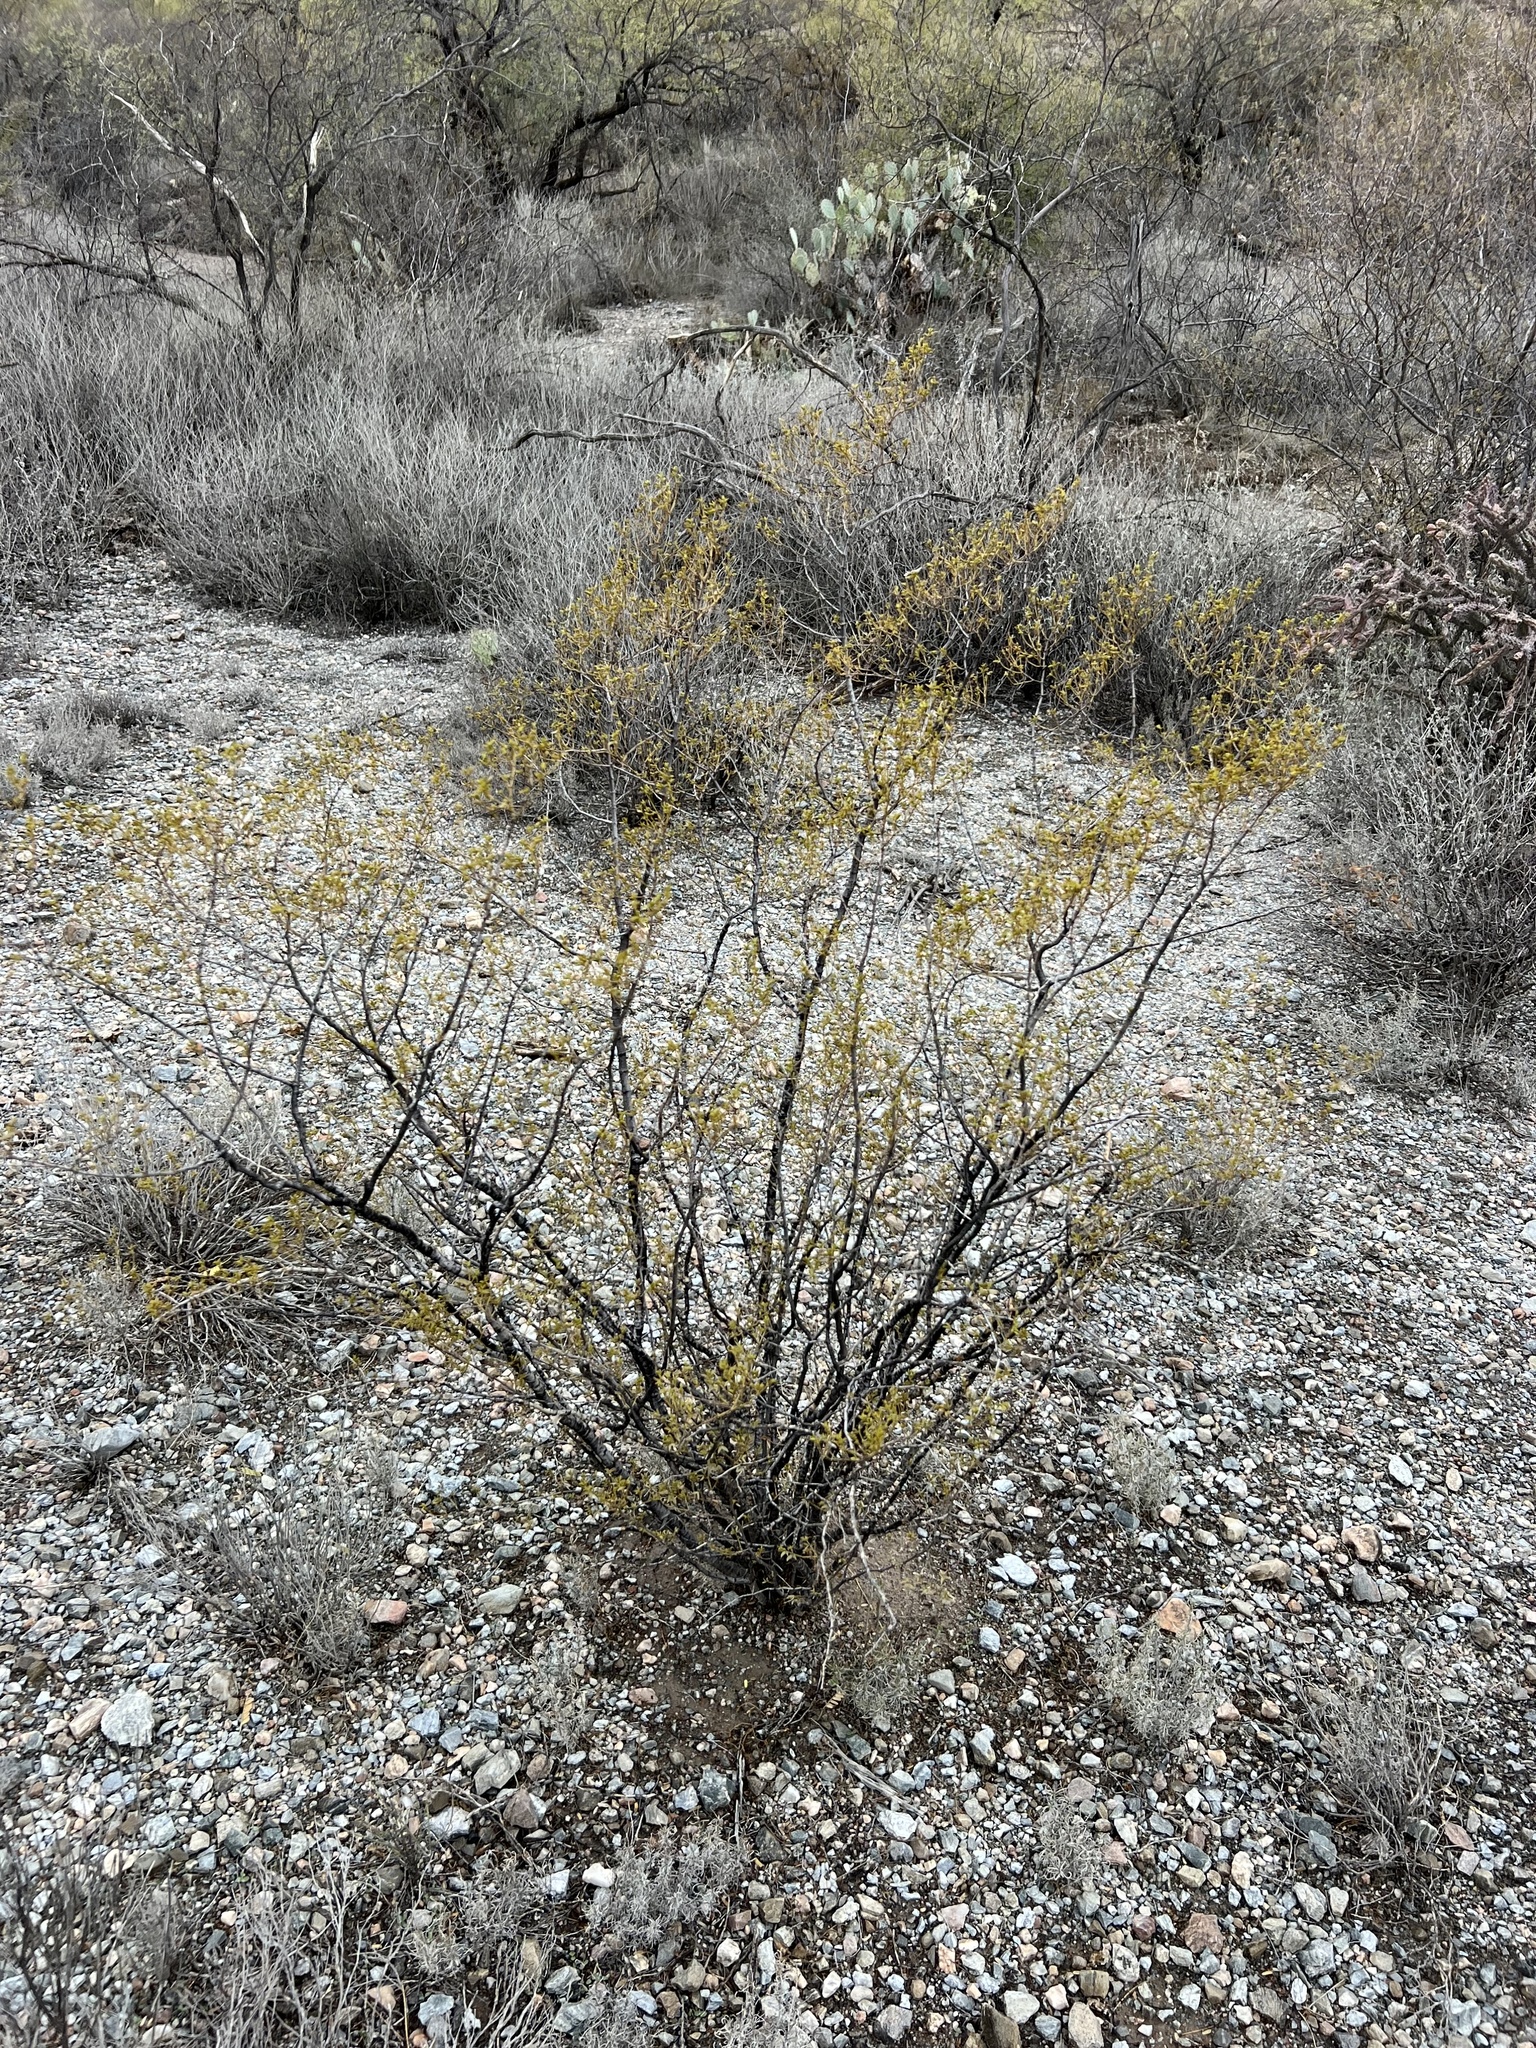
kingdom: Plantae
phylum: Tracheophyta
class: Magnoliopsida
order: Zygophyllales
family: Zygophyllaceae
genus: Larrea
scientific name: Larrea tridentata
